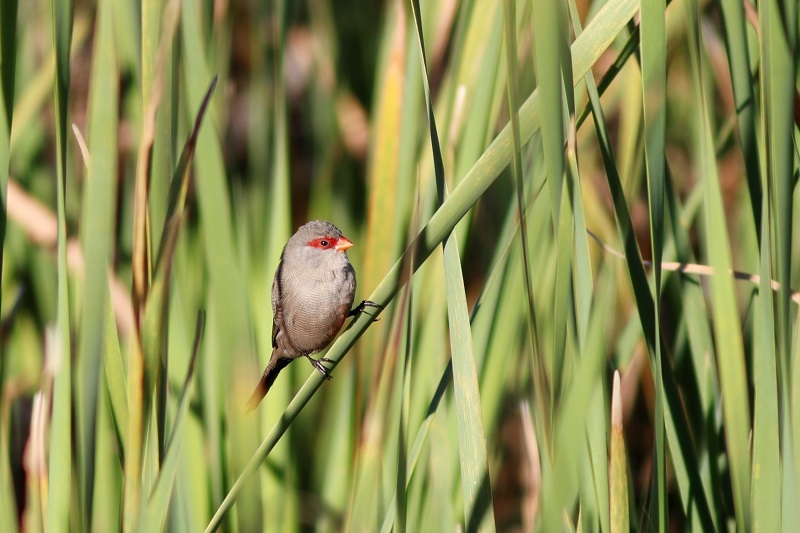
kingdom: Animalia
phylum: Chordata
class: Aves
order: Passeriformes
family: Estrildidae
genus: Estrilda
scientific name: Estrilda astrild
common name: Common waxbill
